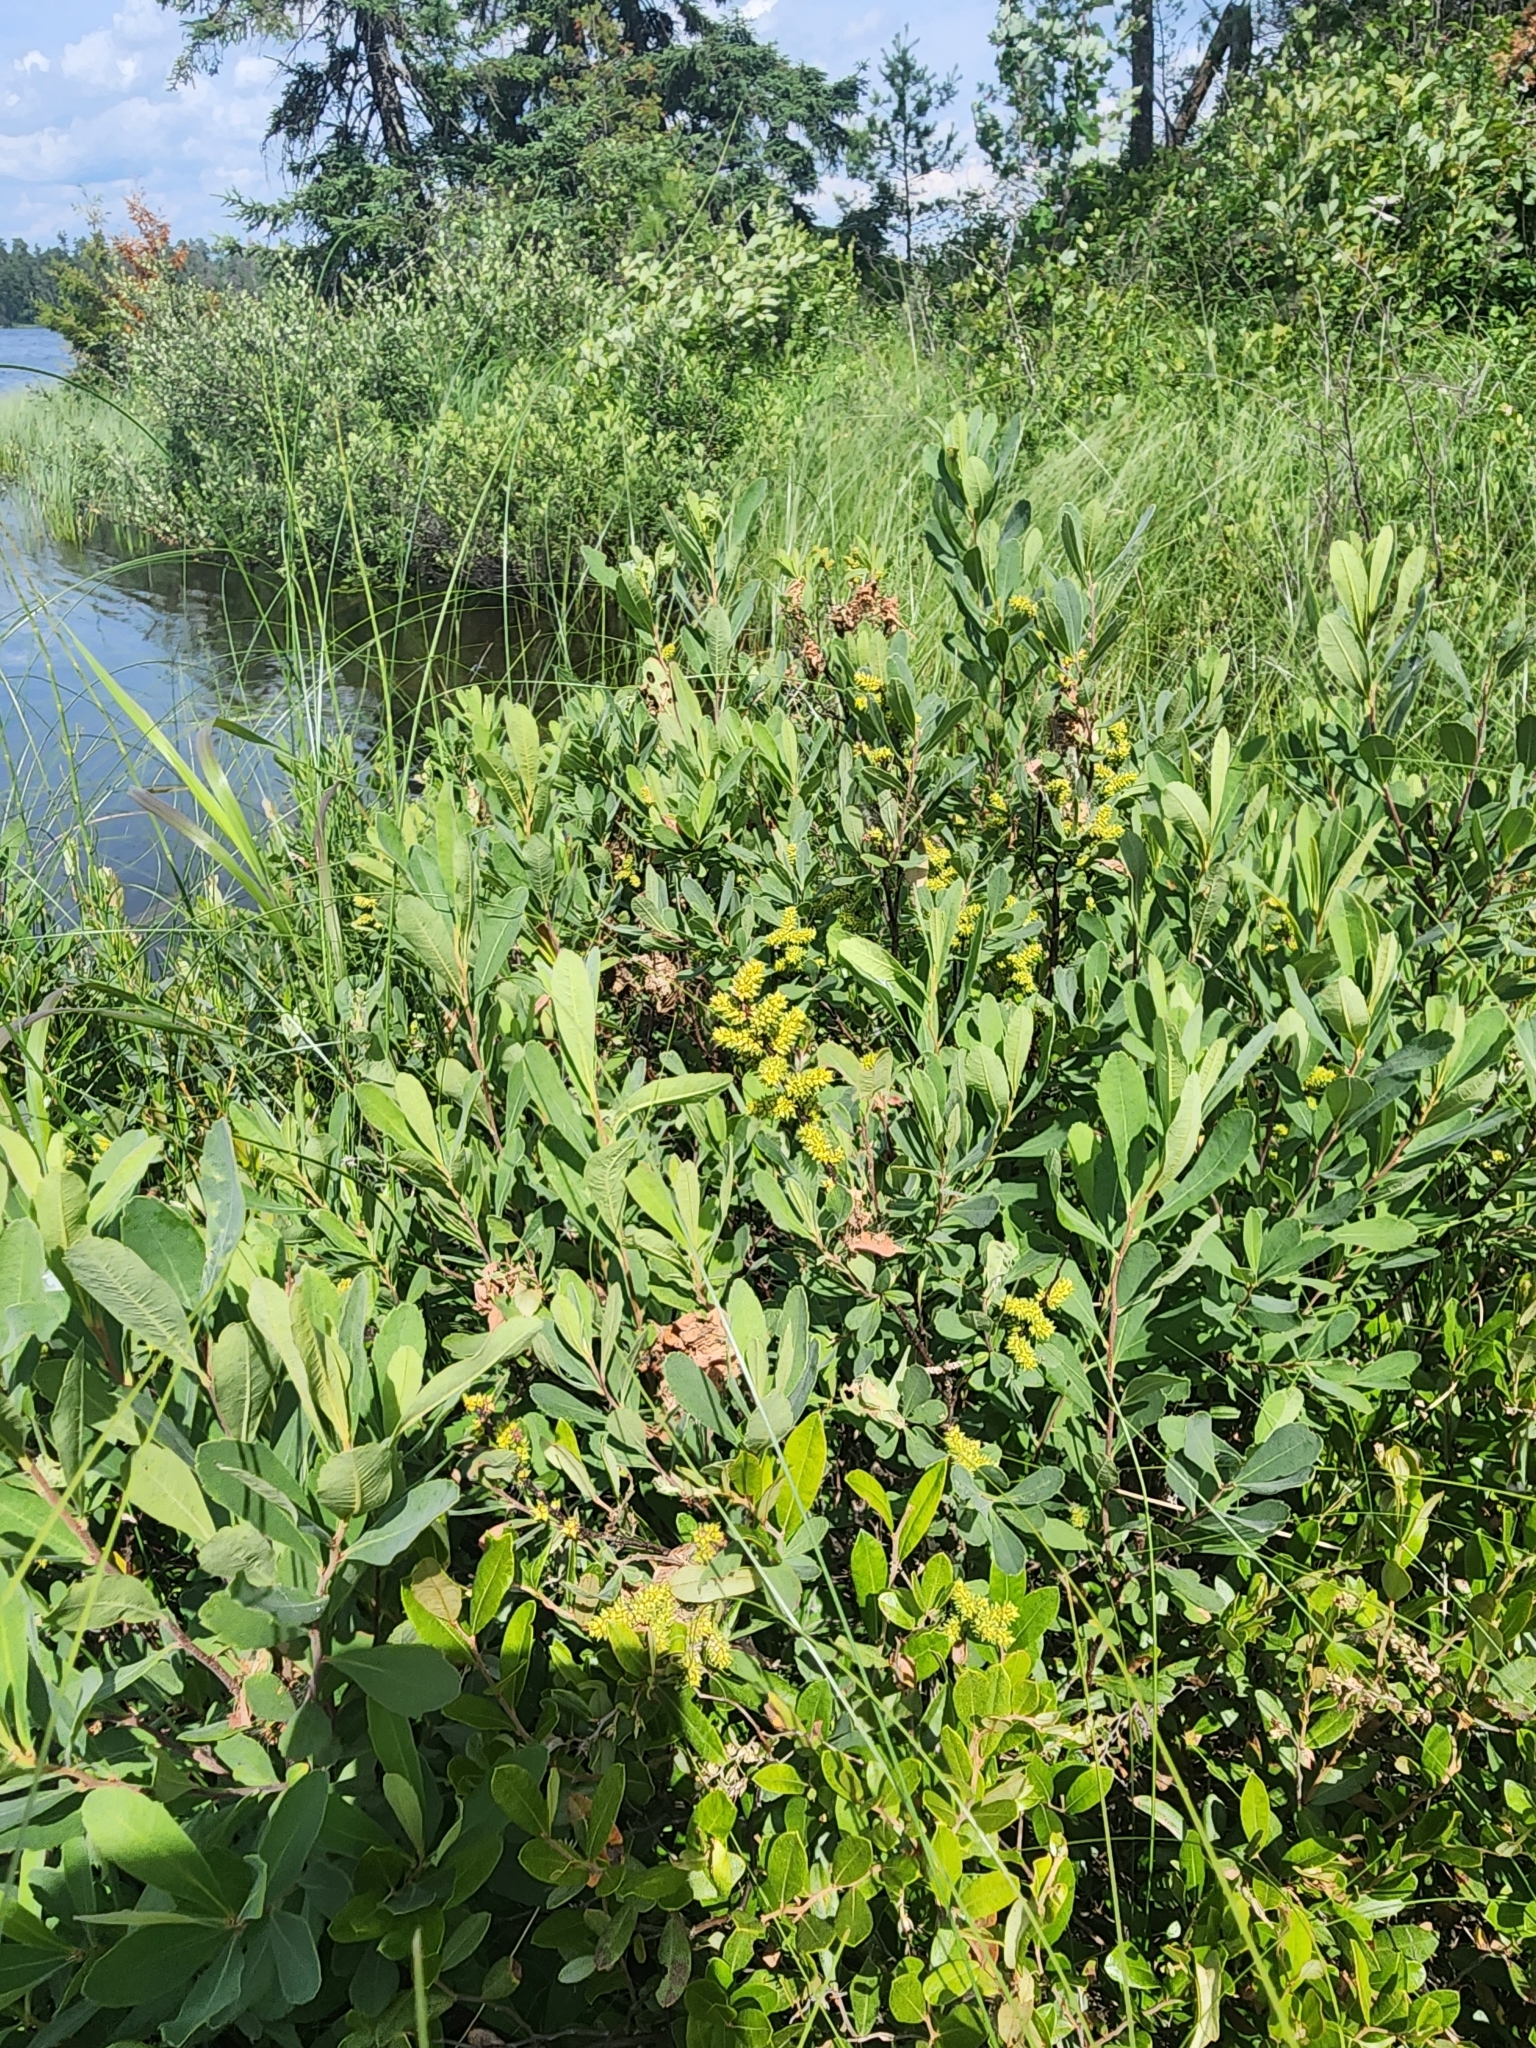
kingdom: Plantae
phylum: Tracheophyta
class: Magnoliopsida
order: Fagales
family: Myricaceae
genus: Myrica
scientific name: Myrica gale
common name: Sweet gale
